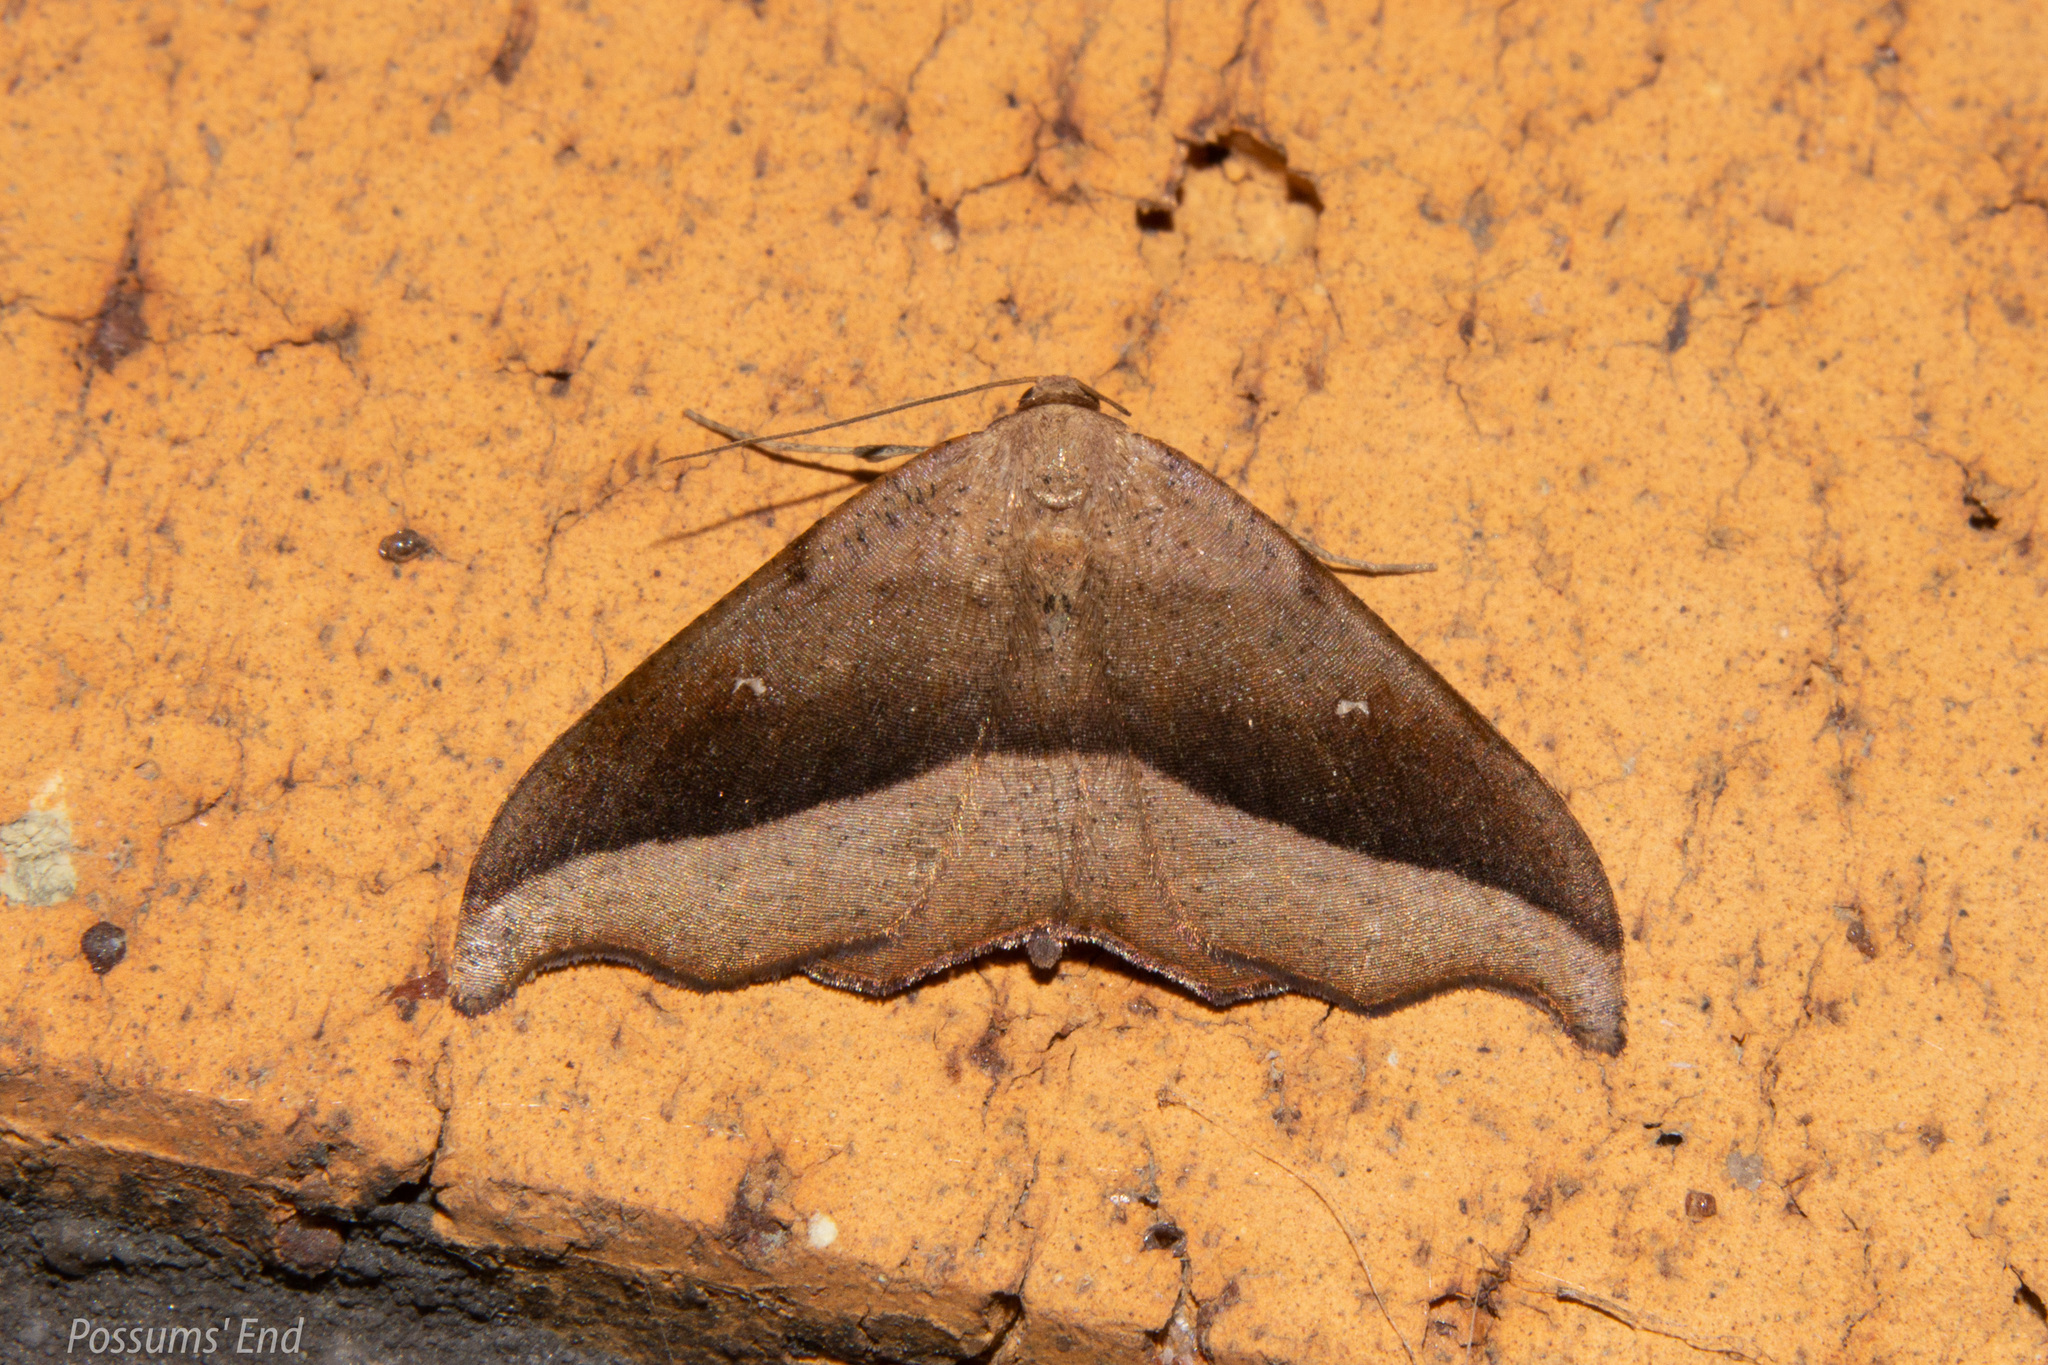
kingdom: Animalia
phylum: Arthropoda
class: Insecta
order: Lepidoptera
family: Geometridae
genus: Sarisa
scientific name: Sarisa muriferata
